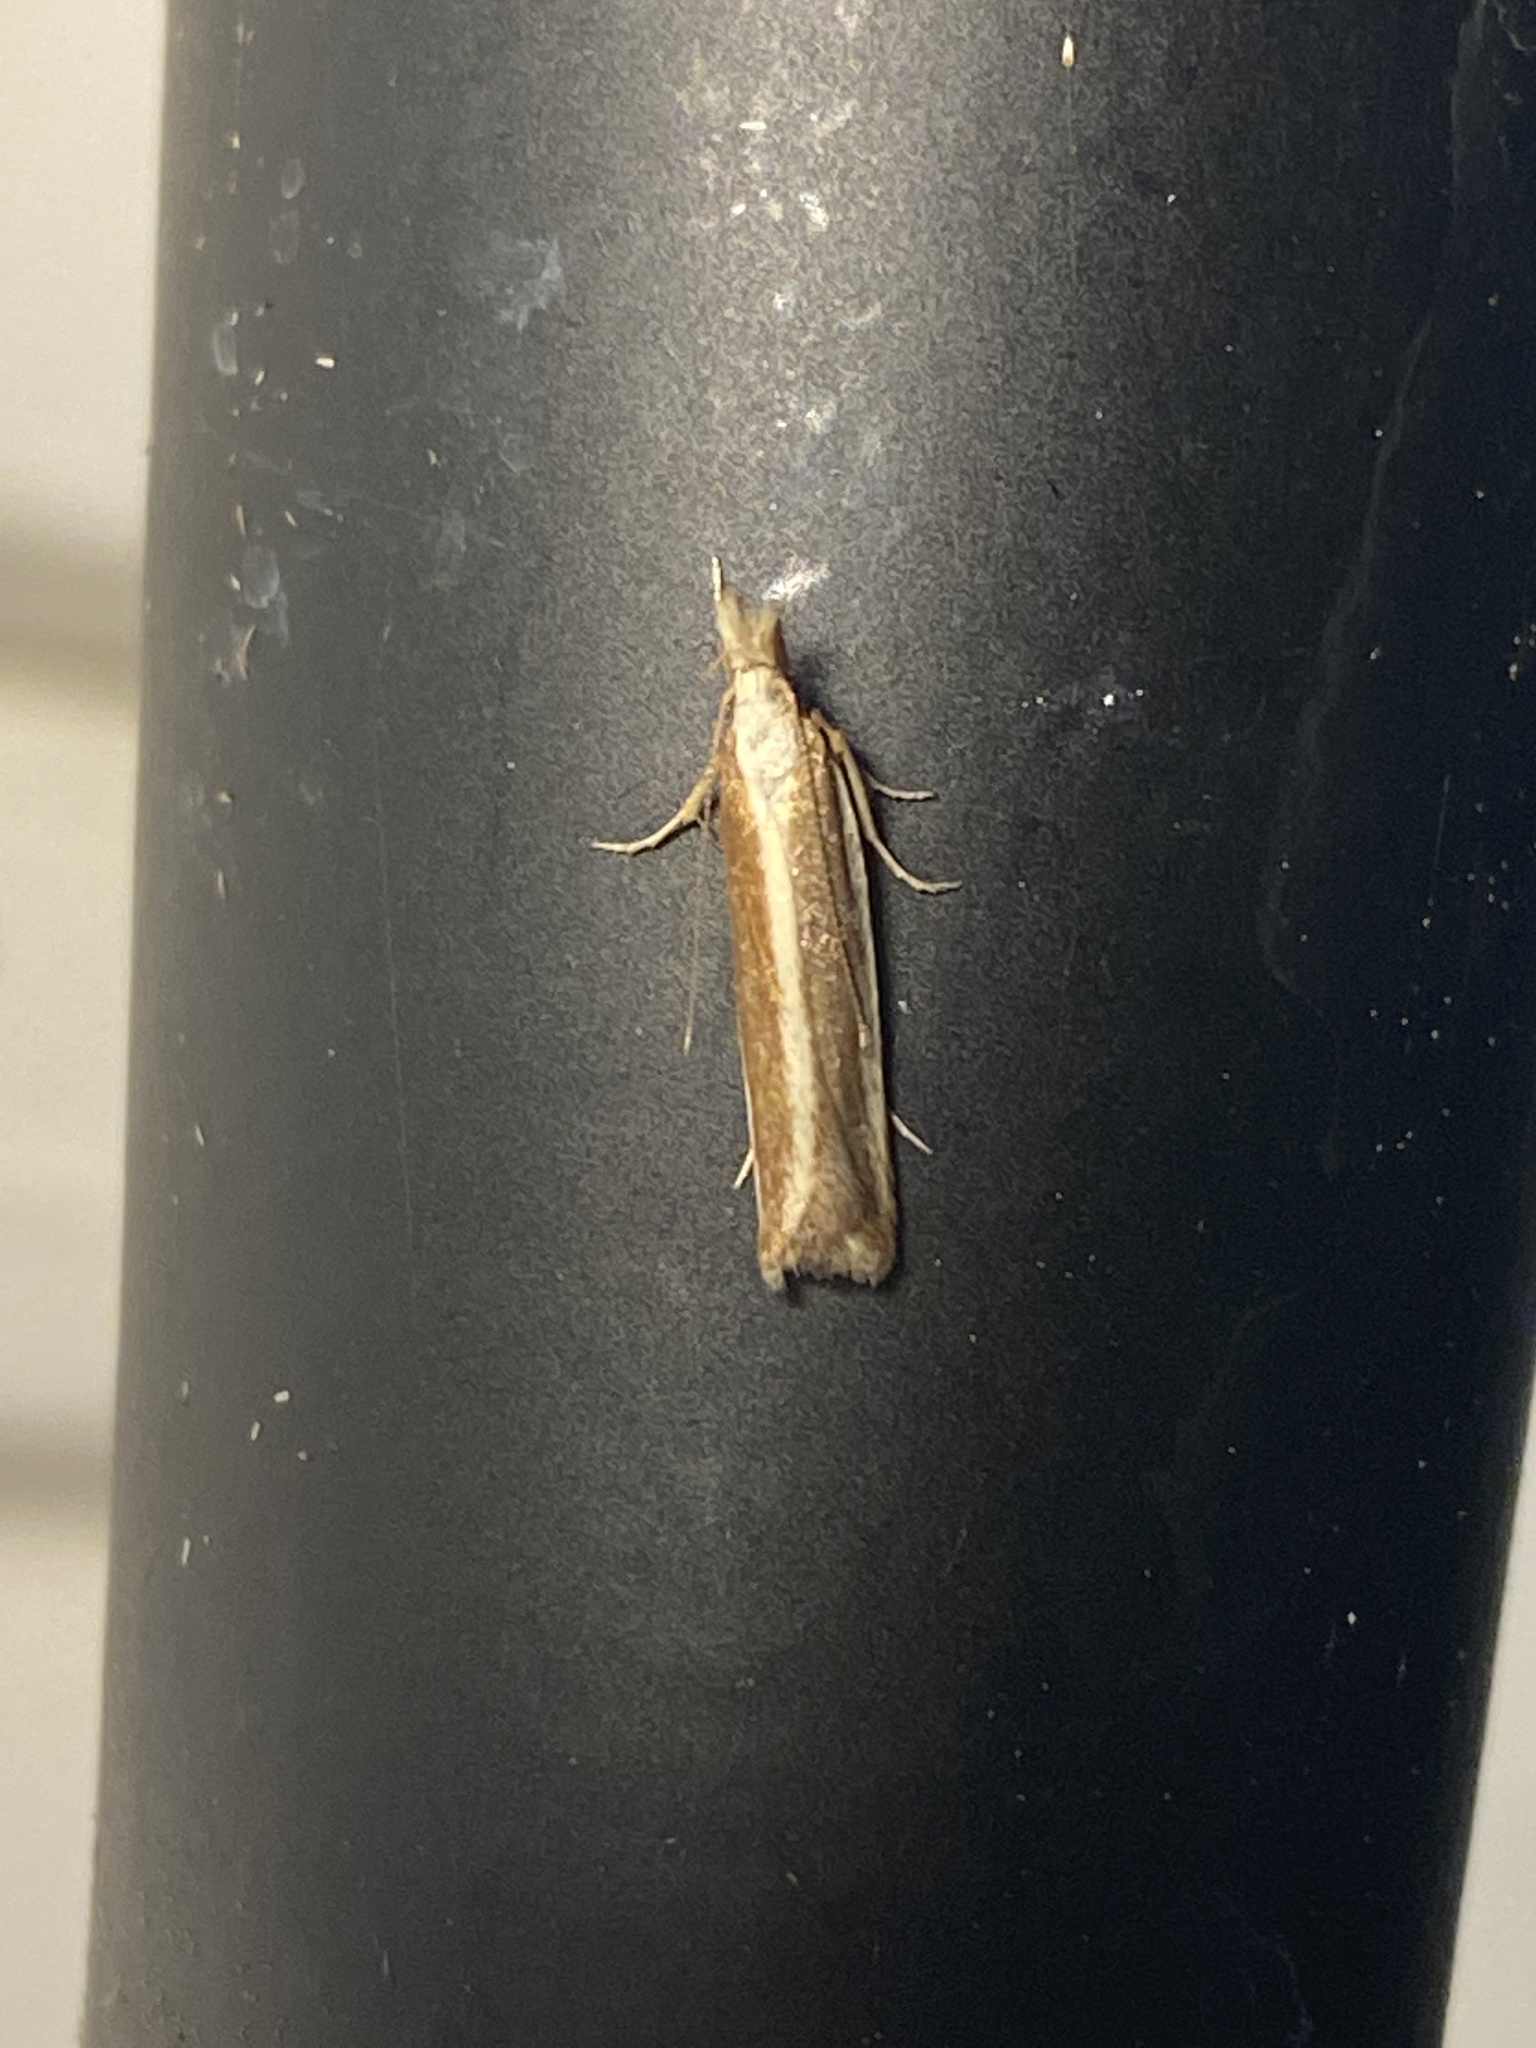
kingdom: Animalia
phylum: Arthropoda
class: Insecta
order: Lepidoptera
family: Gelechiidae
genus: Dichomeris
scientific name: Dichomeris marginella
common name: Juniper webworm
